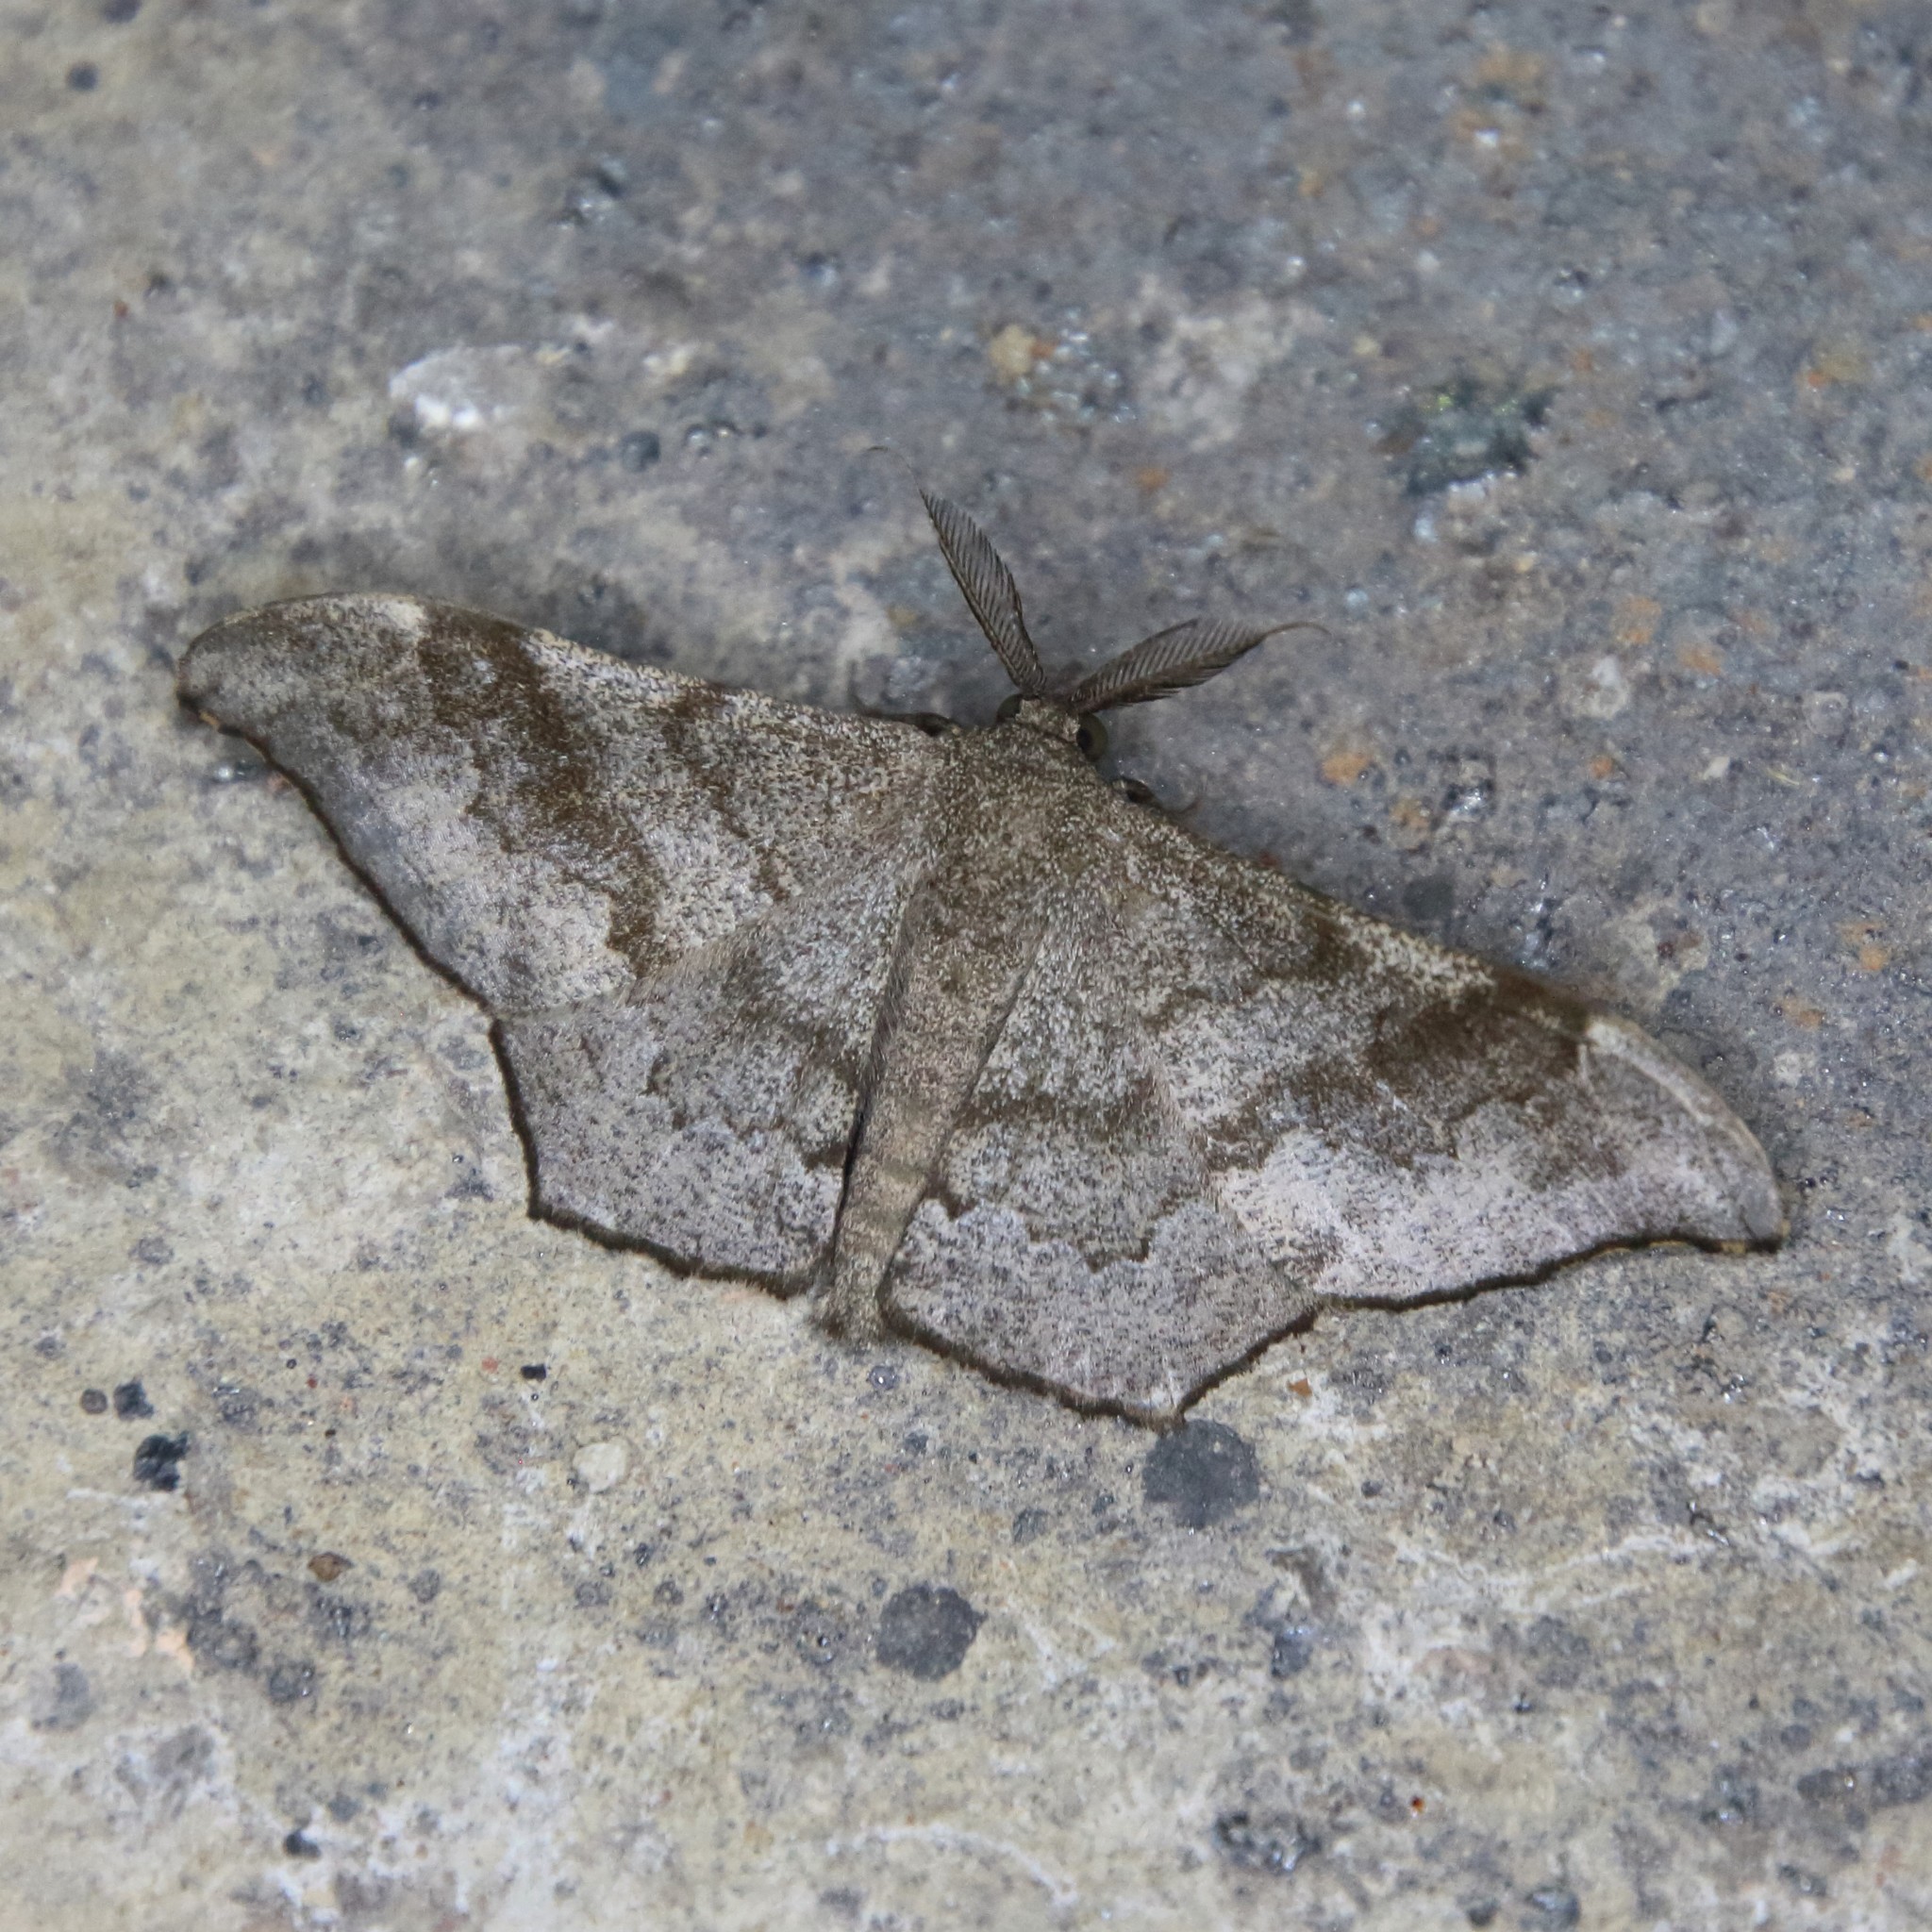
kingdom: Animalia
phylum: Arthropoda
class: Insecta
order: Lepidoptera
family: Geometridae
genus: Hyposidra
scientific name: Hyposidra talaca
